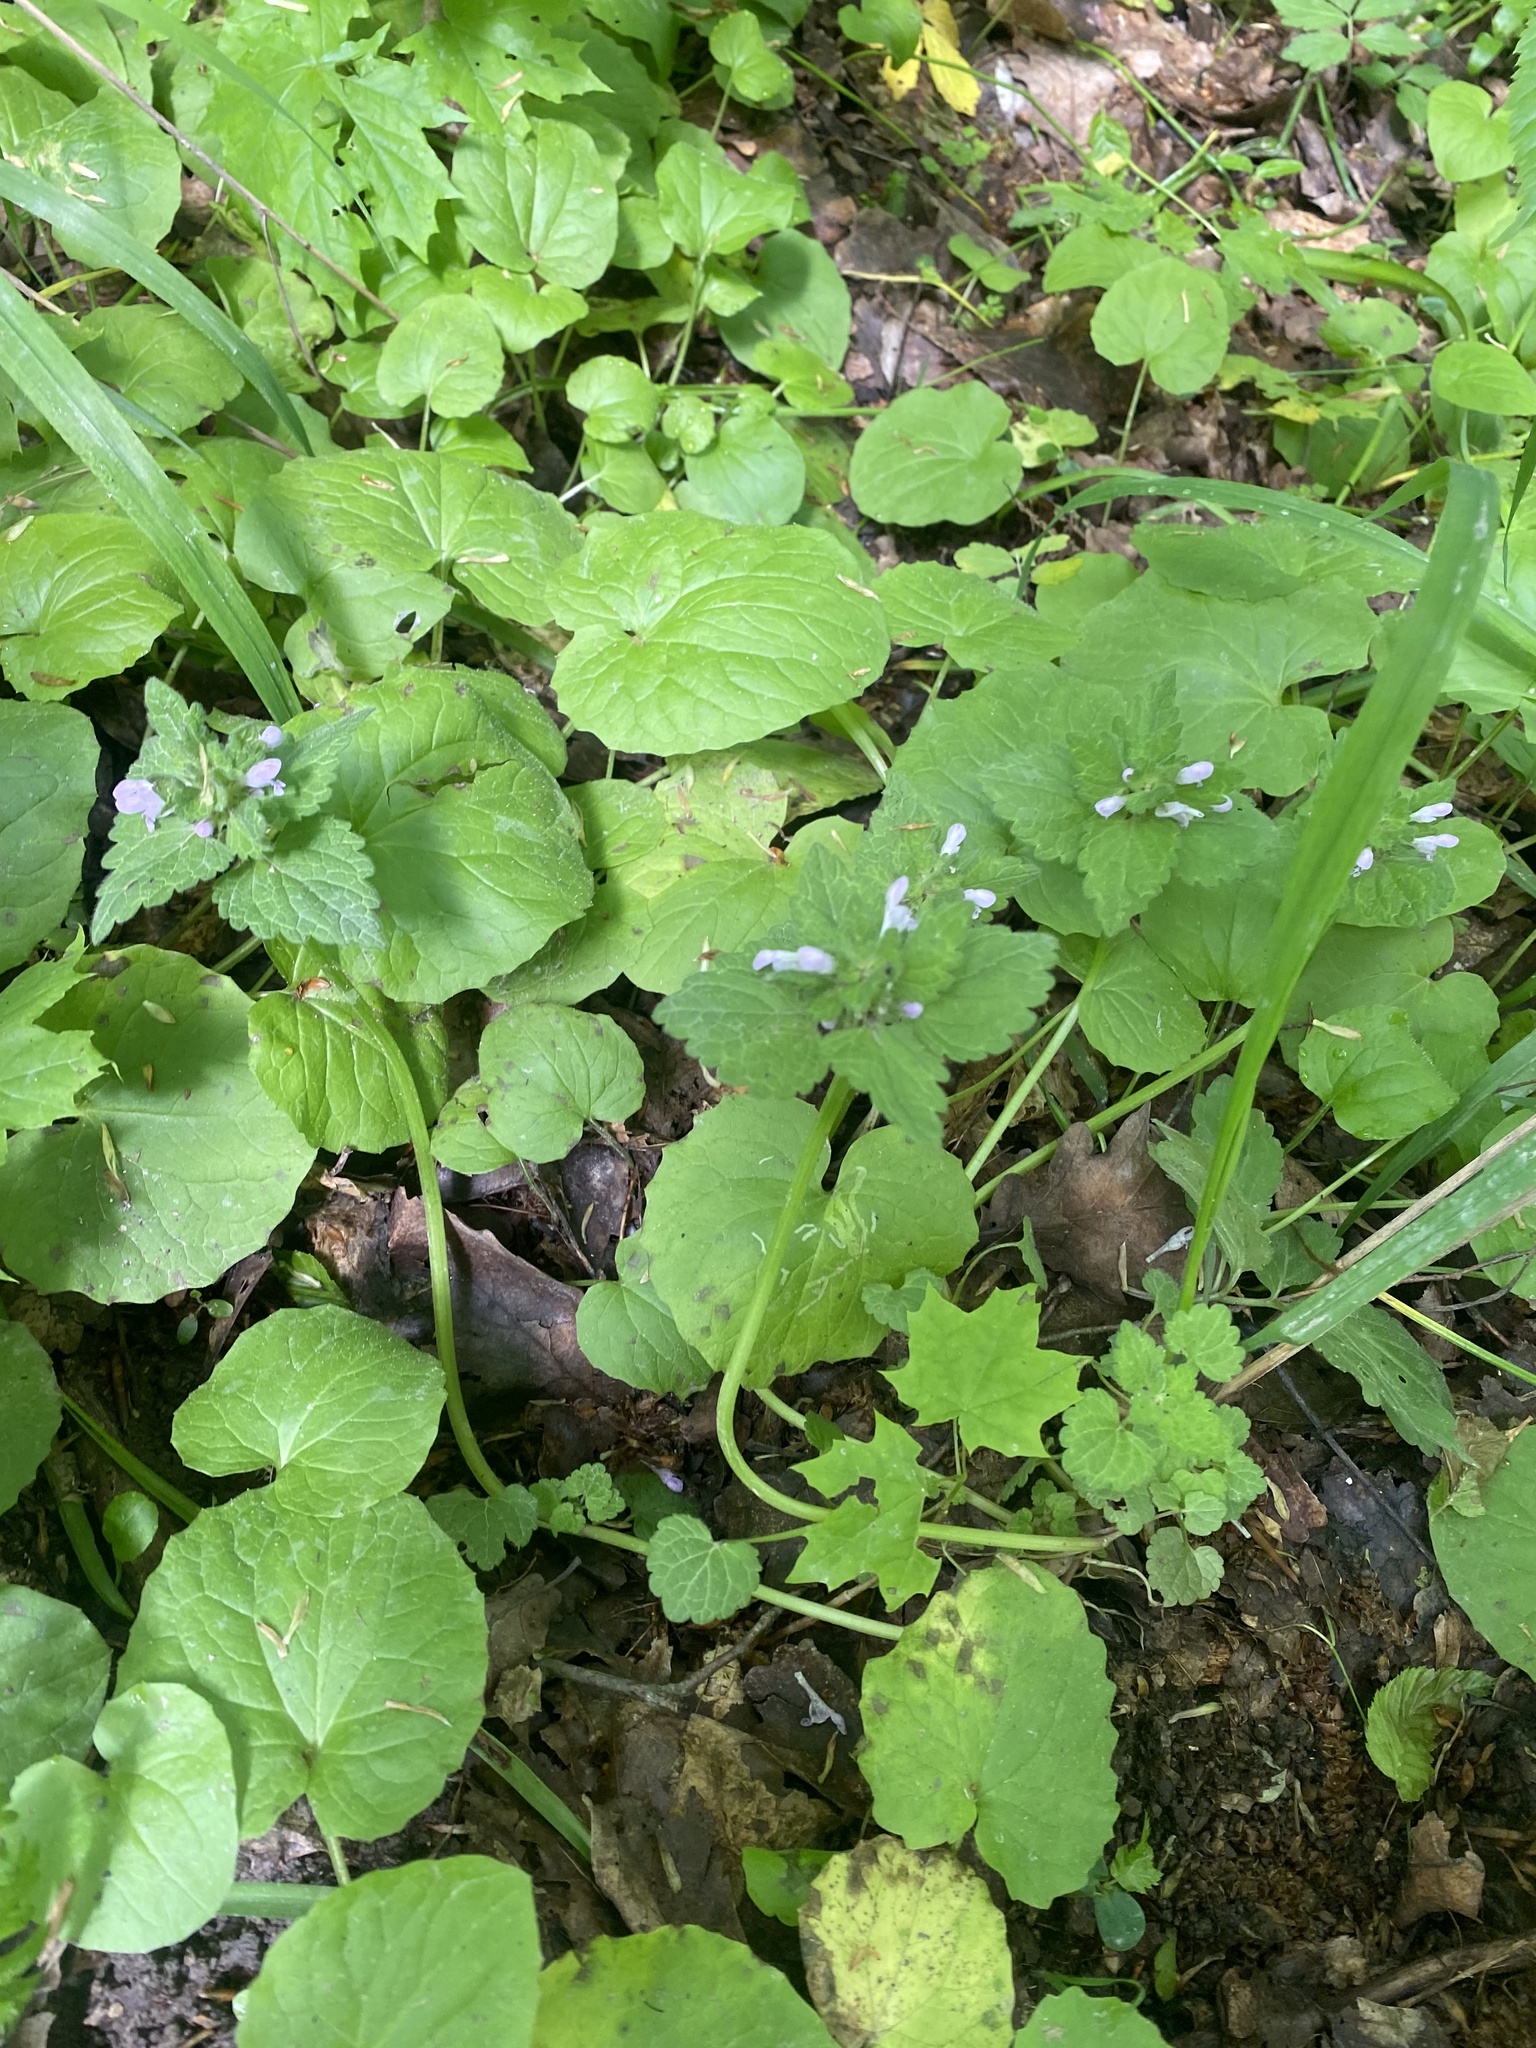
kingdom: Plantae
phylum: Tracheophyta
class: Magnoliopsida
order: Lamiales
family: Lamiaceae
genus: Lamium
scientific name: Lamium purpureum
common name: Red dead-nettle
